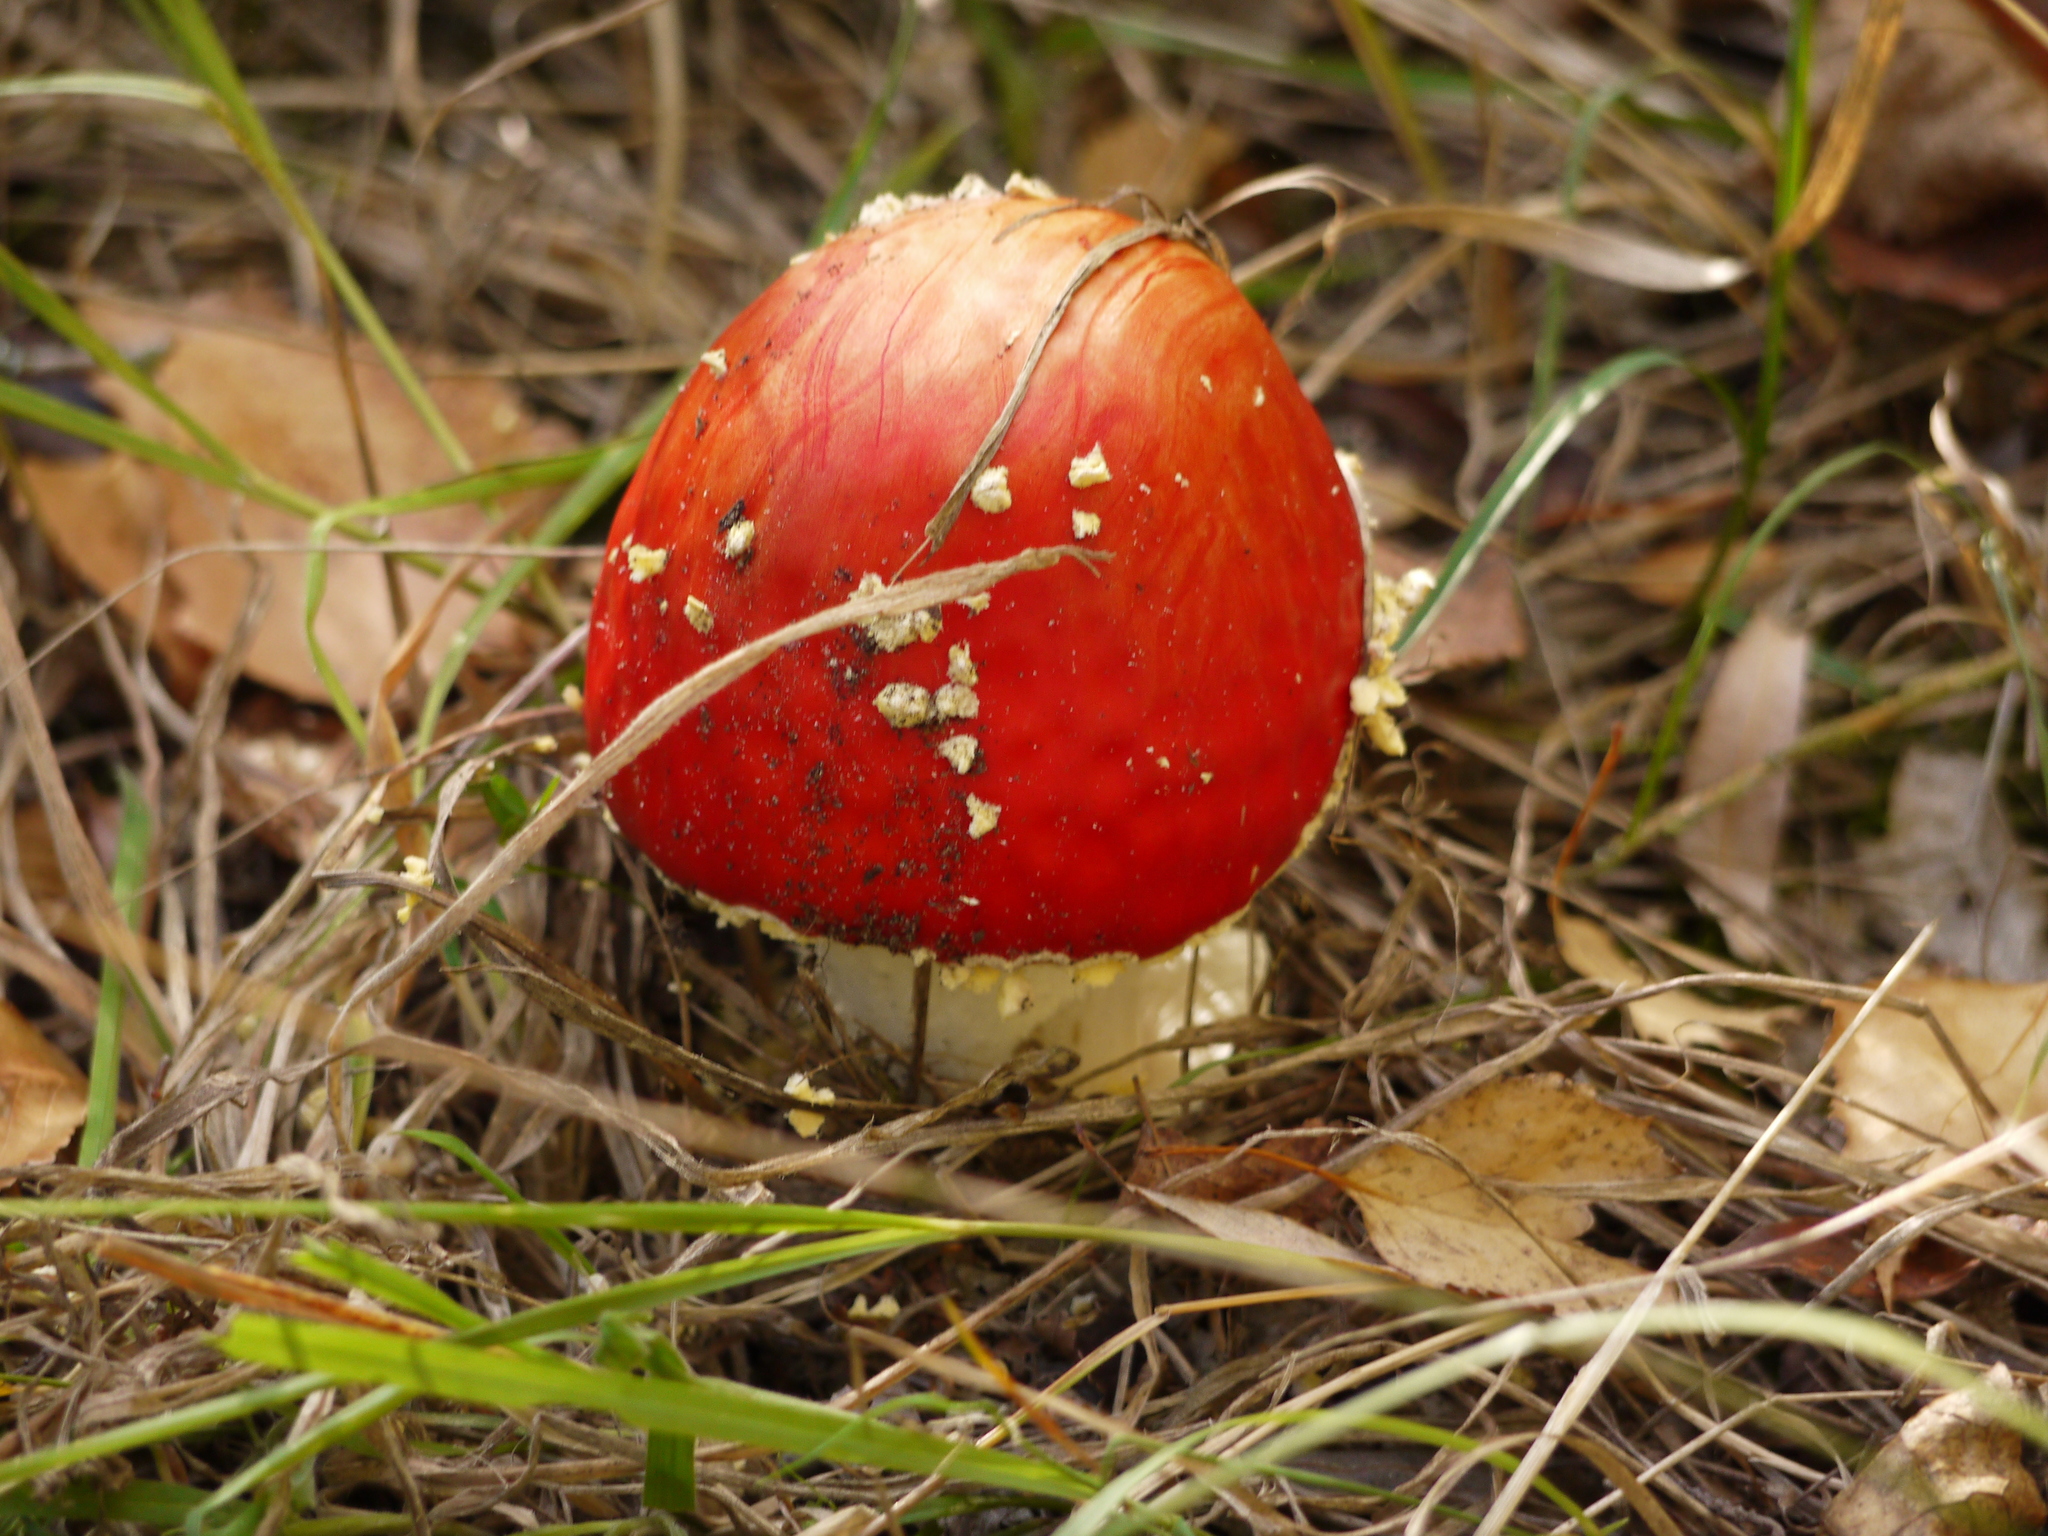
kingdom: Fungi
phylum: Basidiomycota
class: Agaricomycetes
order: Agaricales
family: Amanitaceae
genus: Amanita
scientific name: Amanita muscaria
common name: Fly agaric
